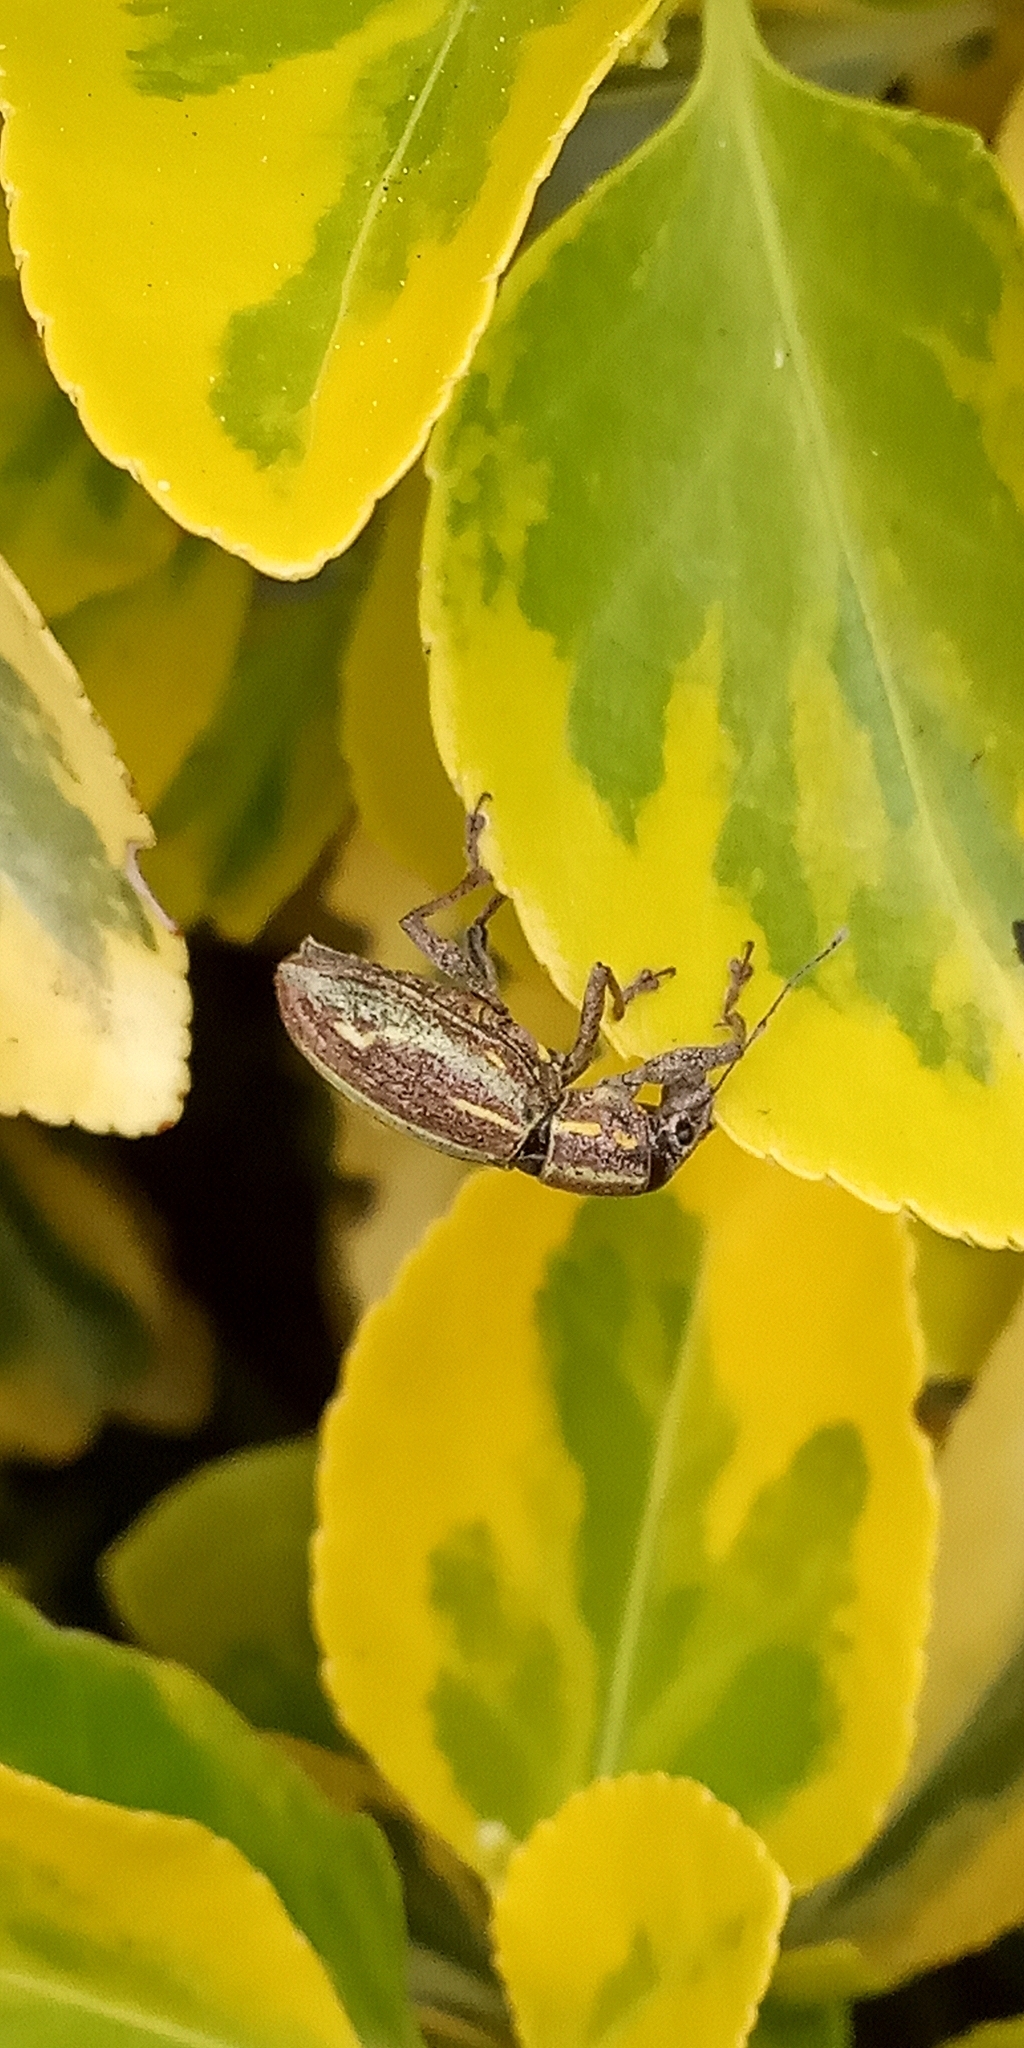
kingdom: Animalia
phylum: Arthropoda
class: Insecta
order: Coleoptera
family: Curculionidae
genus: Naupactus
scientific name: Naupactus xanthographus
